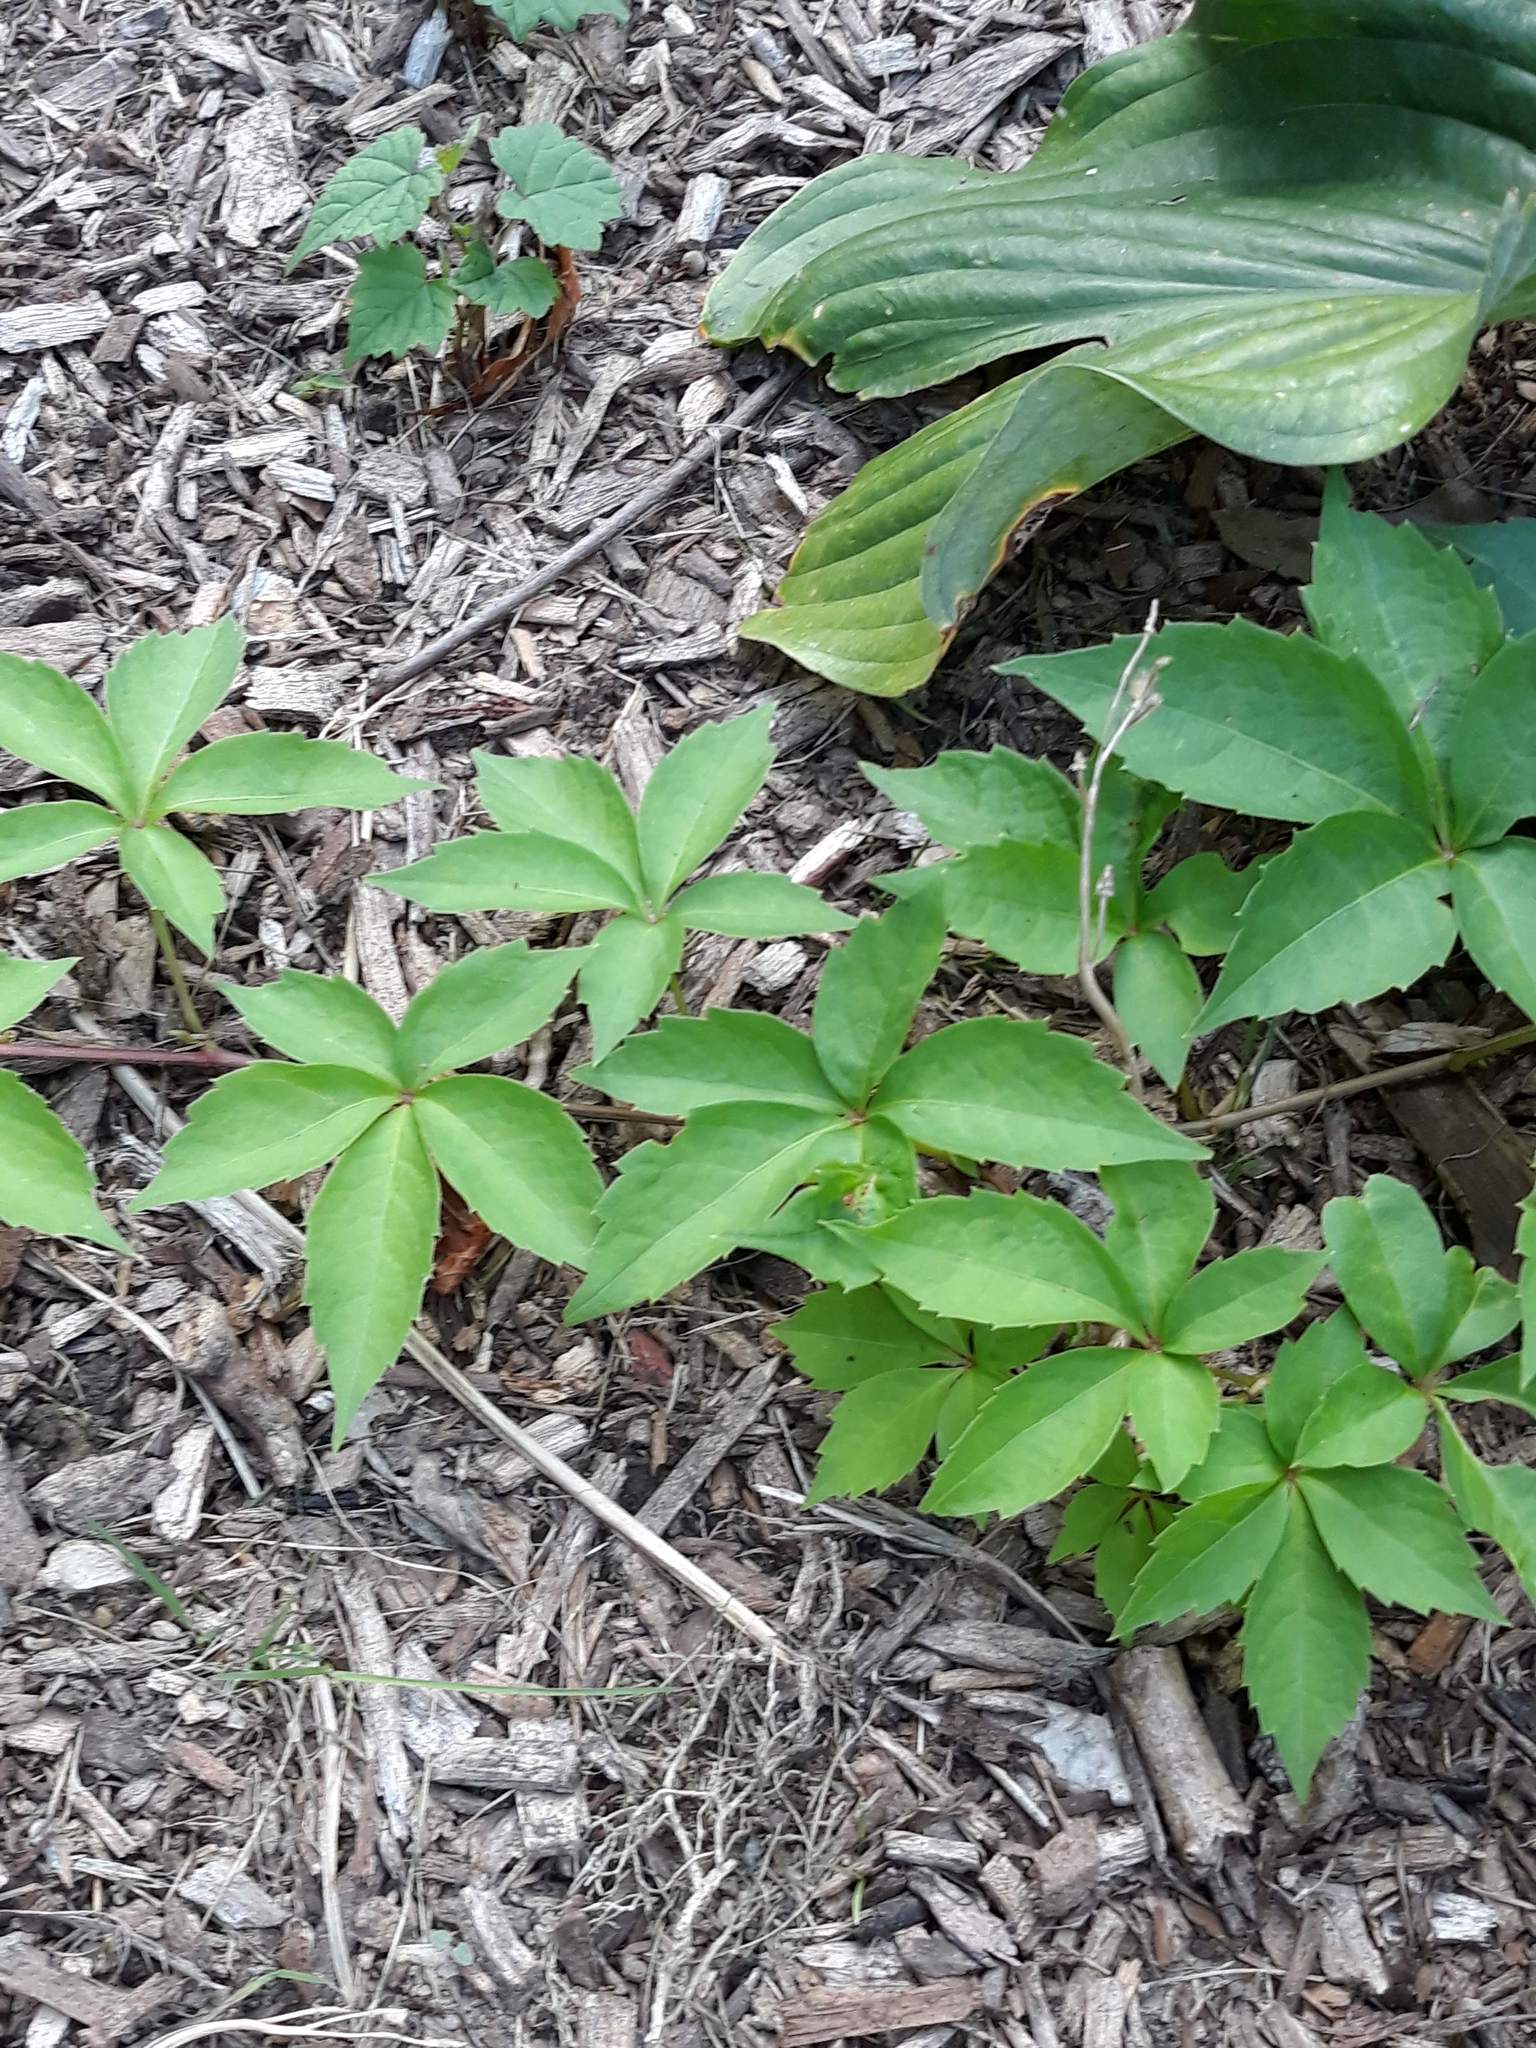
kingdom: Plantae
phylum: Tracheophyta
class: Magnoliopsida
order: Vitales
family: Vitaceae
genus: Parthenocissus
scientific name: Parthenocissus quinquefolia
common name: Virginia-creeper
